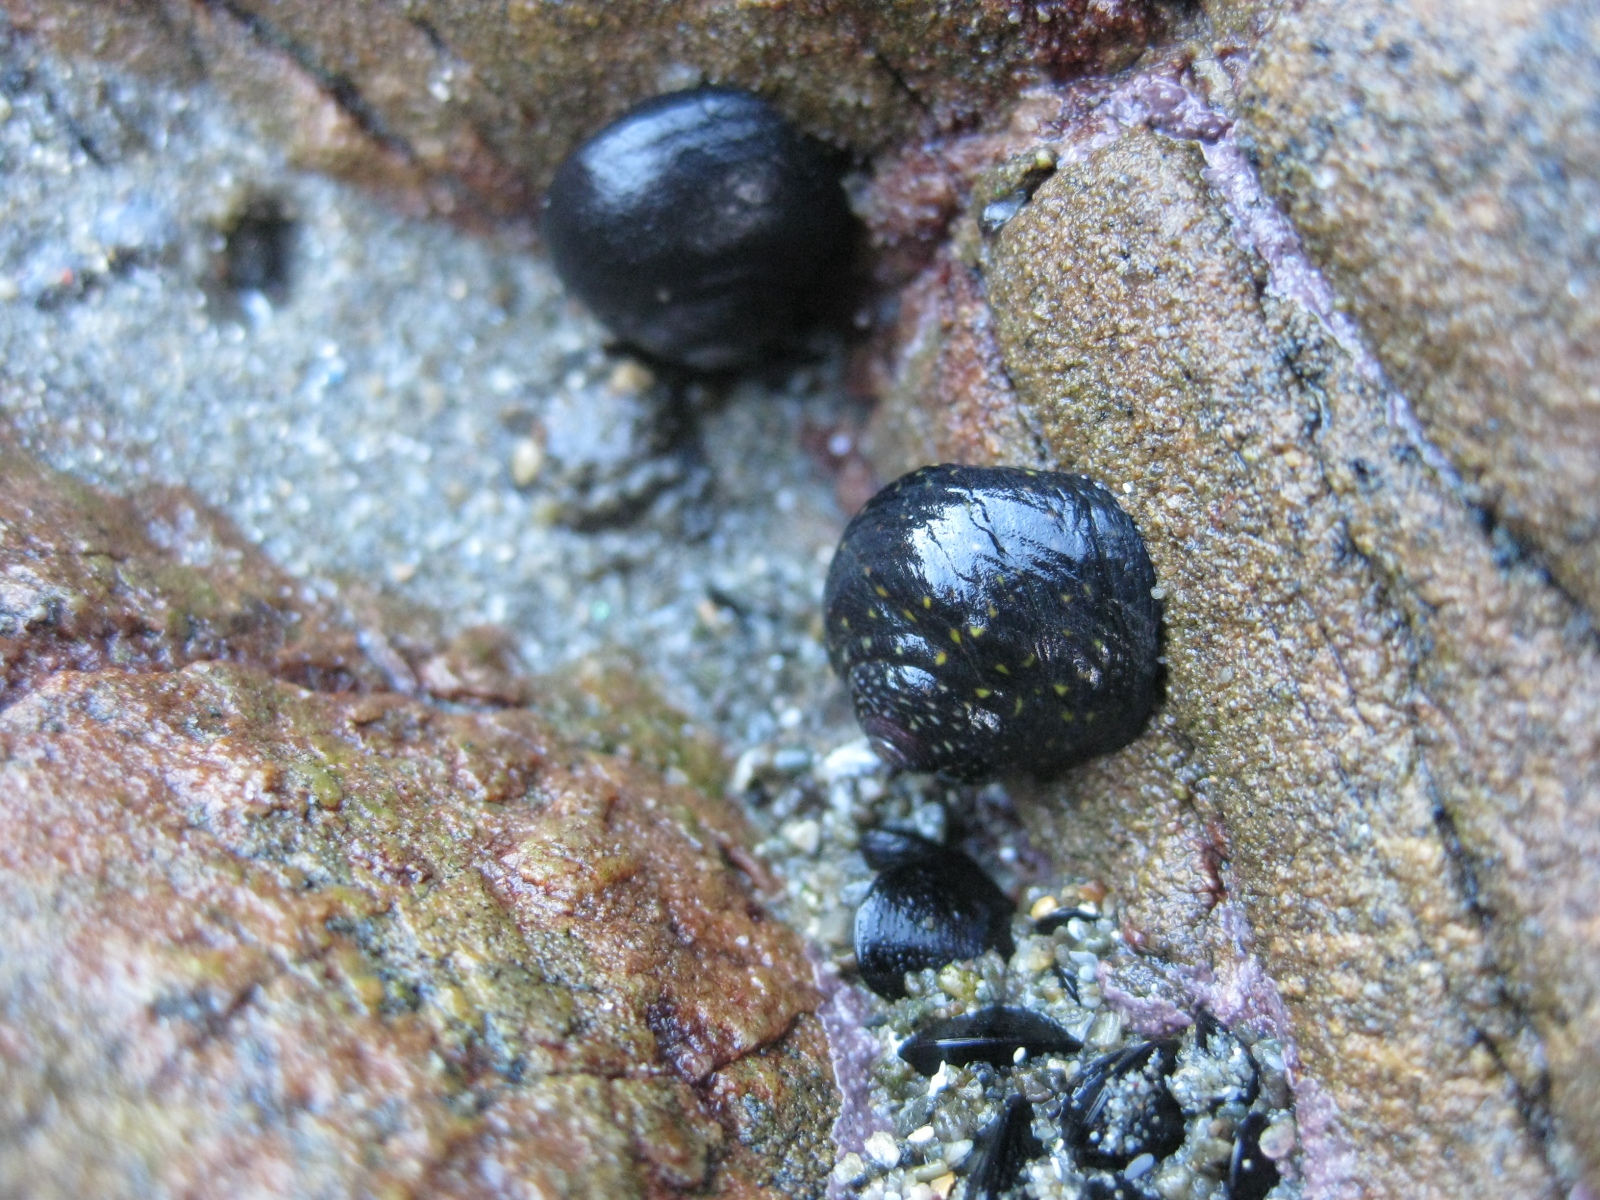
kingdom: Animalia
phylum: Mollusca
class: Gastropoda
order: Trochida
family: Trochidae
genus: Diloma
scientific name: Diloma aridum
